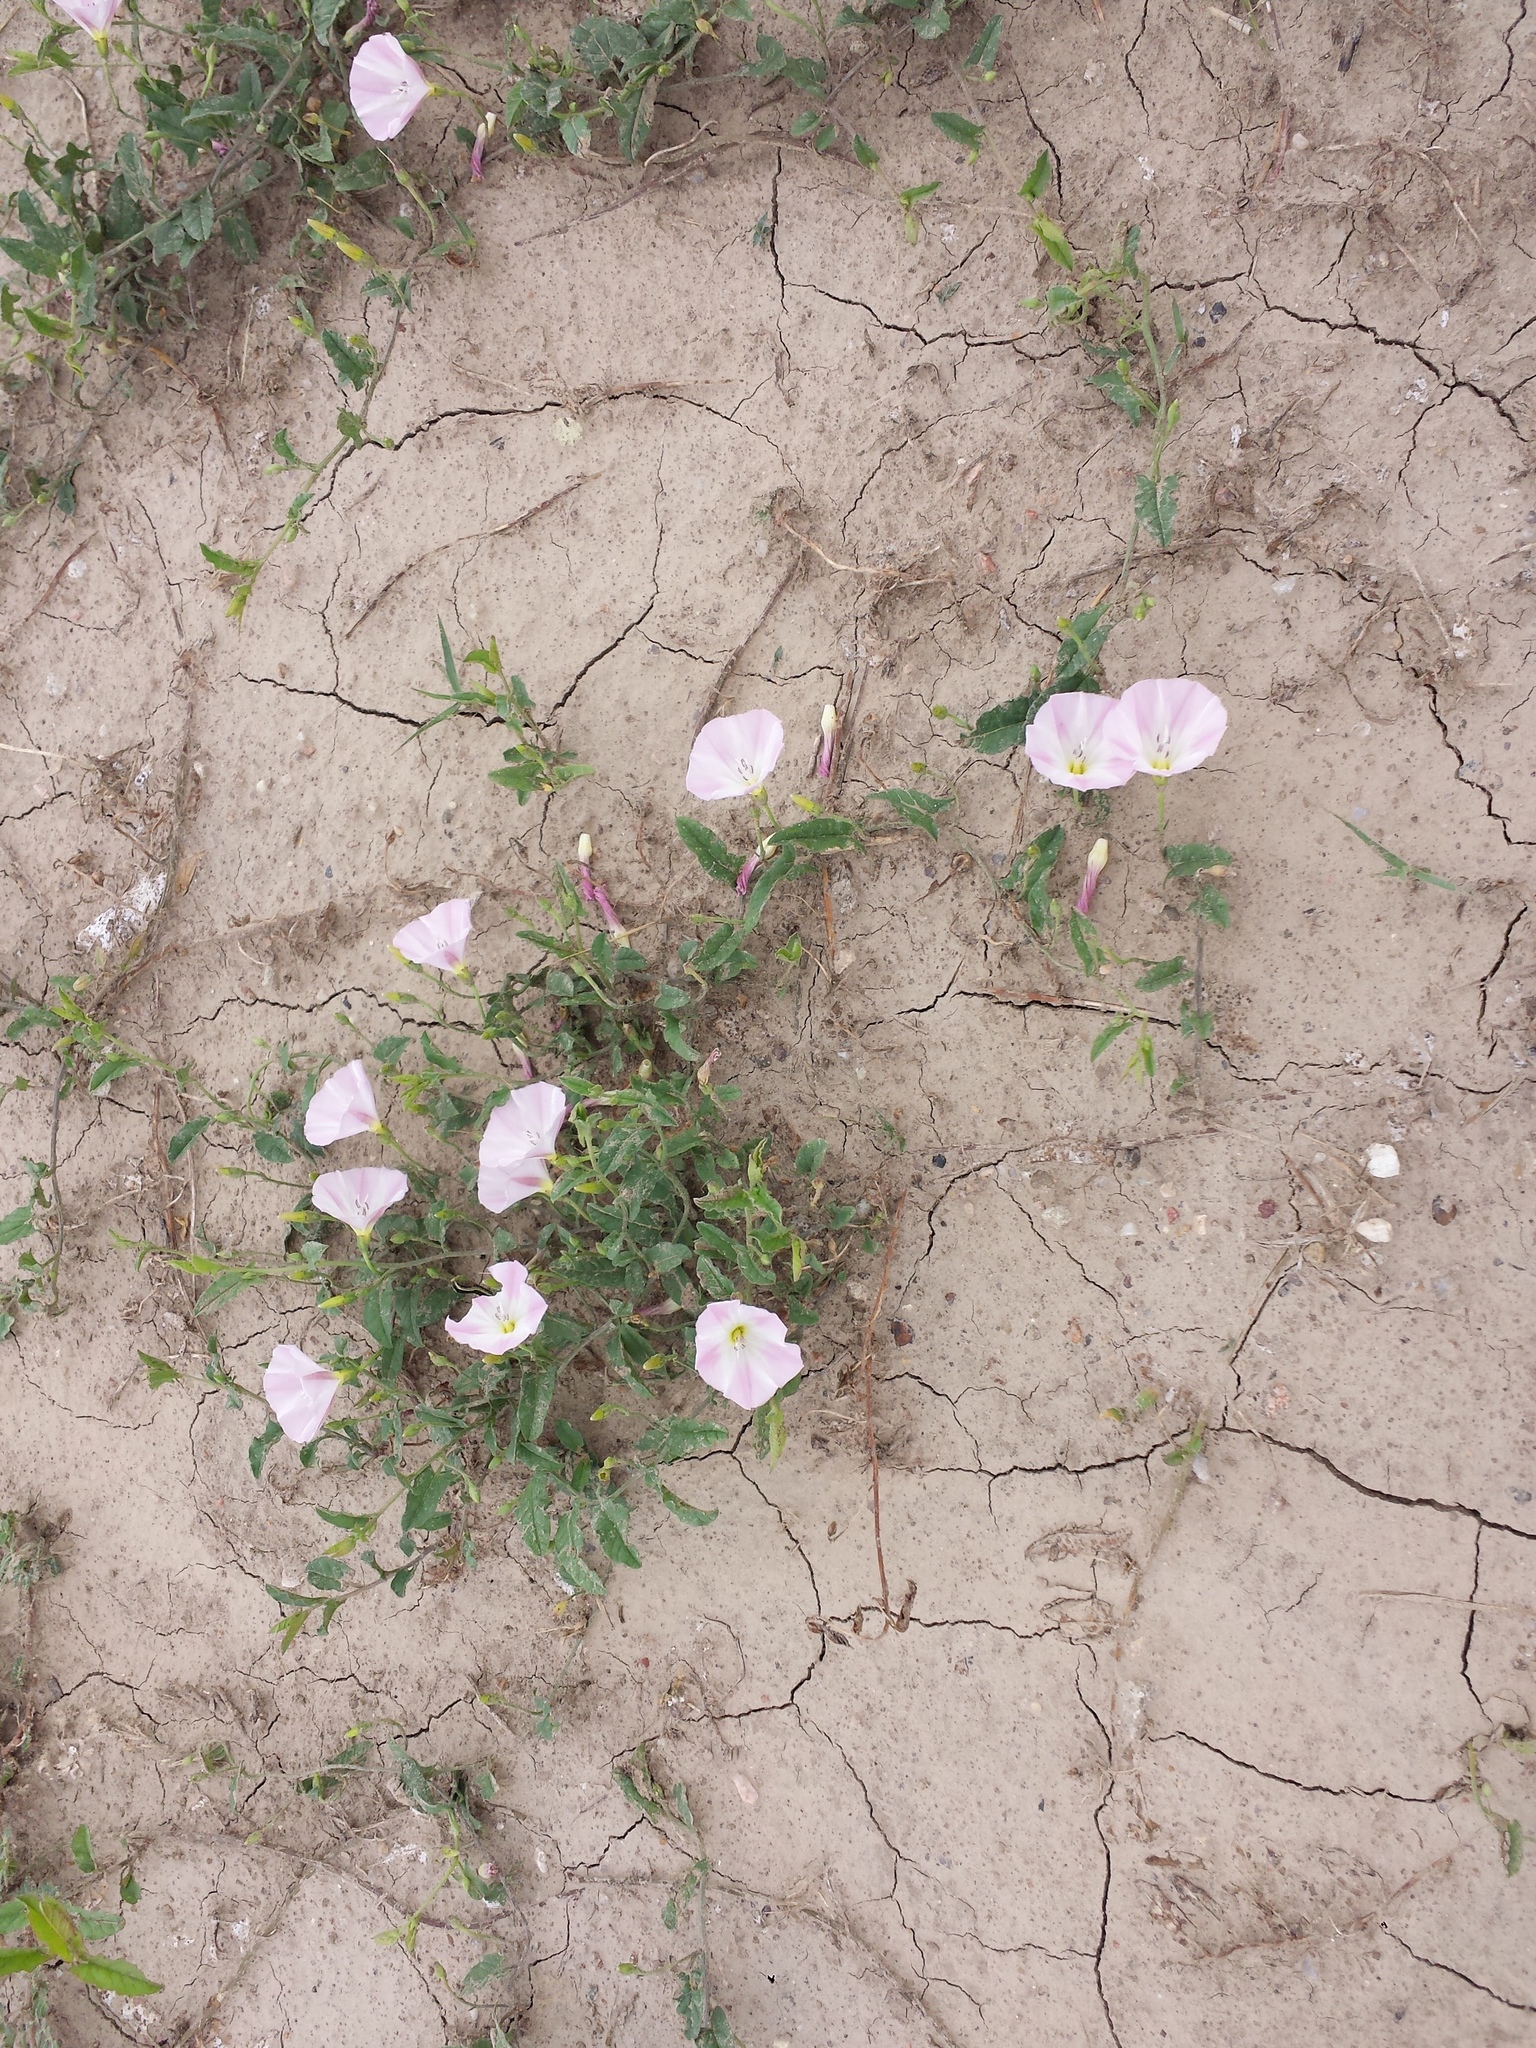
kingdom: Plantae
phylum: Tracheophyta
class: Magnoliopsida
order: Solanales
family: Convolvulaceae
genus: Convolvulus
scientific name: Convolvulus arvensis
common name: Field bindweed
